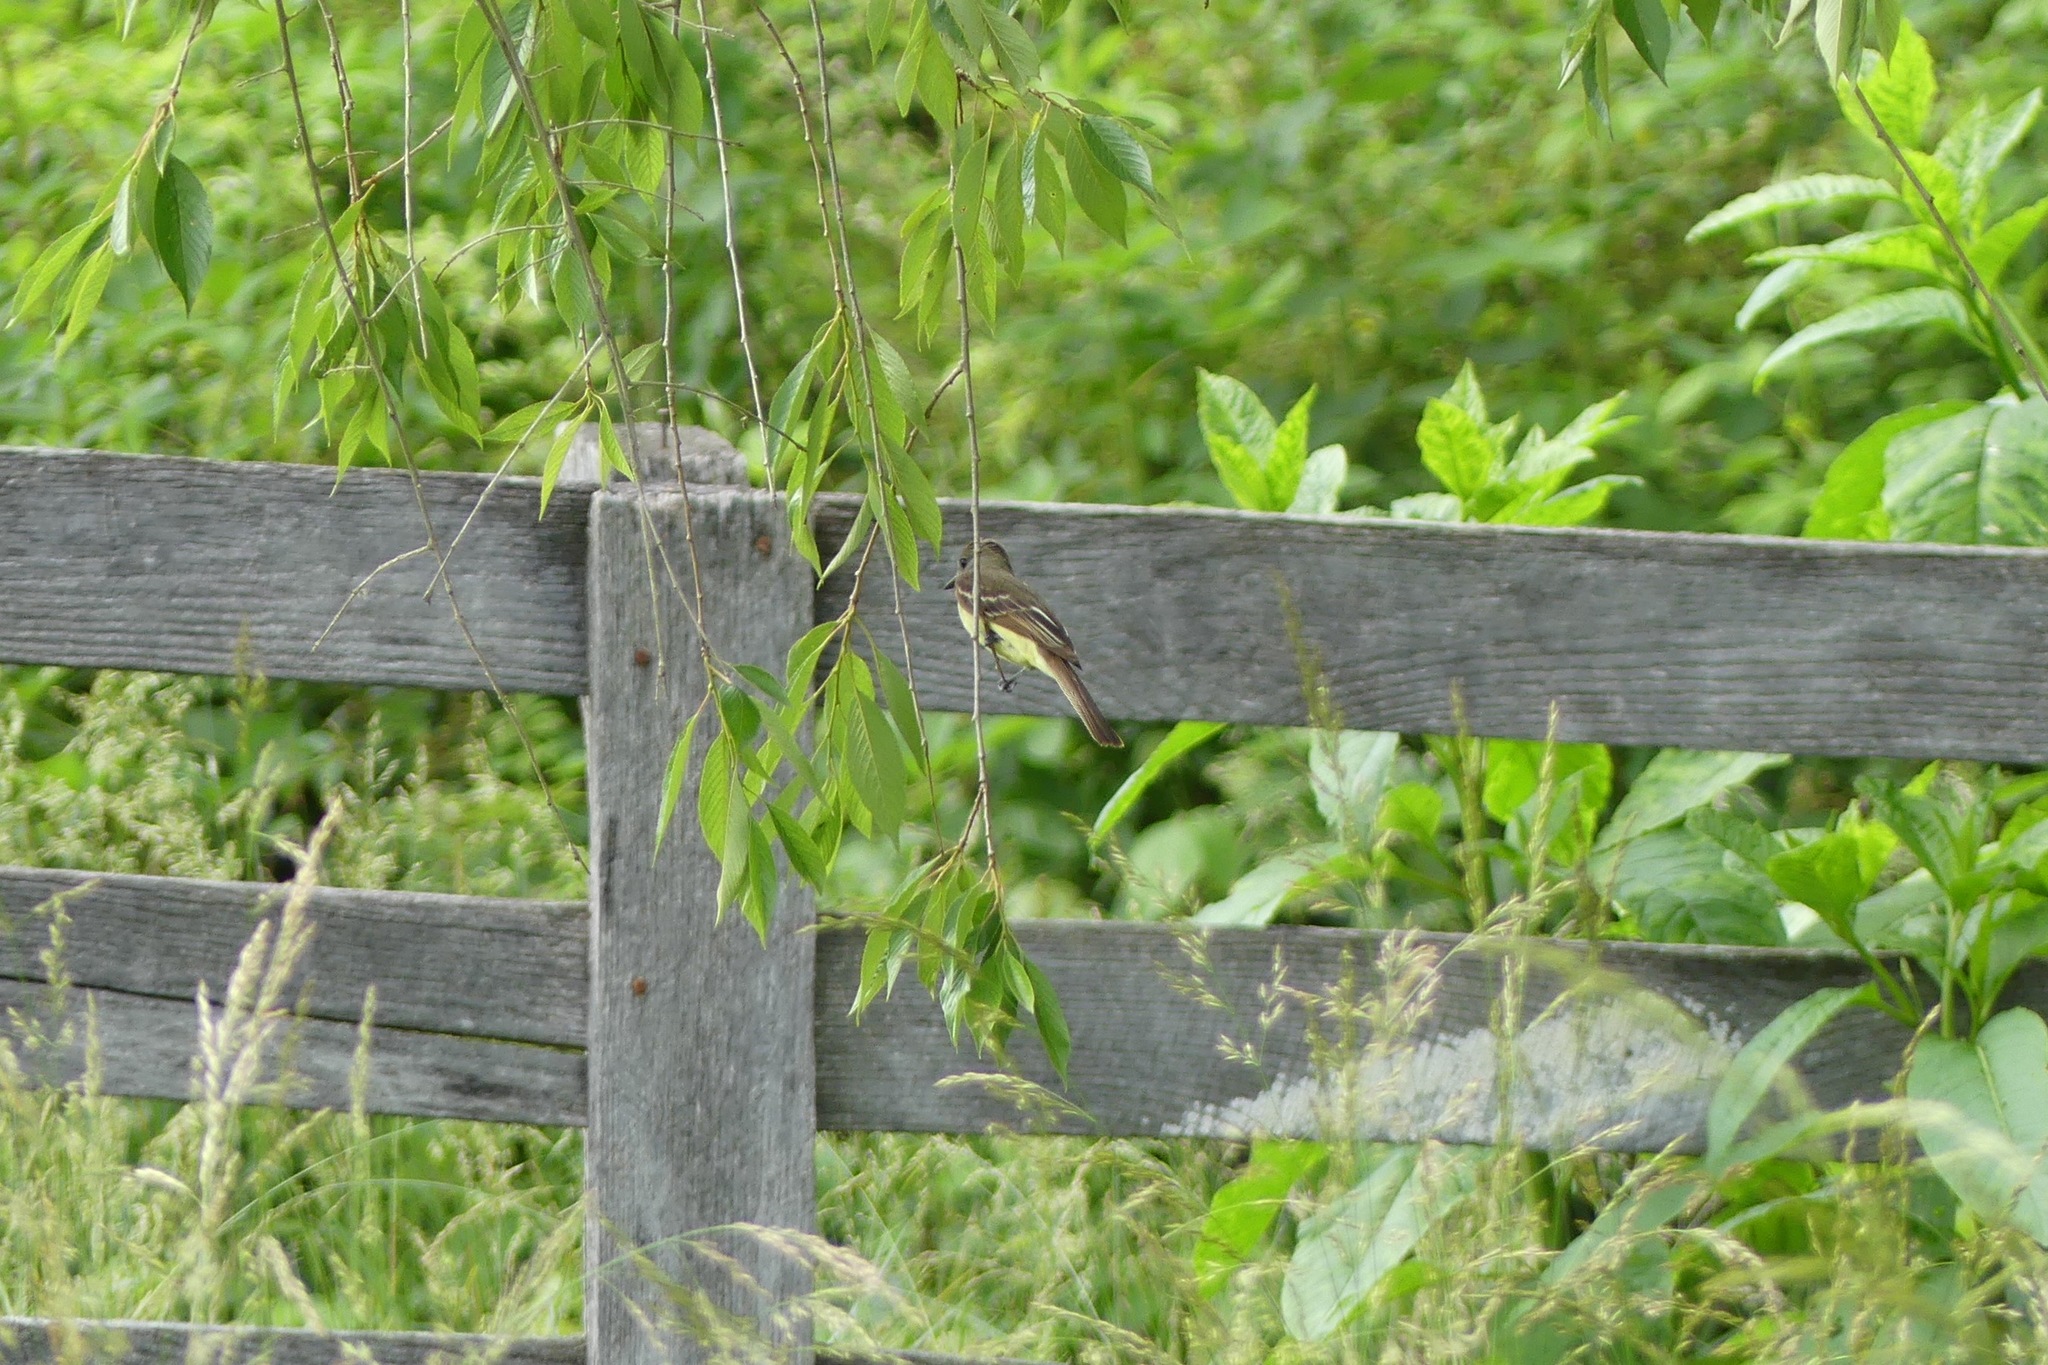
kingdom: Animalia
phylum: Chordata
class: Aves
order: Passeriformes
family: Tyrannidae
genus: Myiarchus
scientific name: Myiarchus crinitus
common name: Great crested flycatcher
